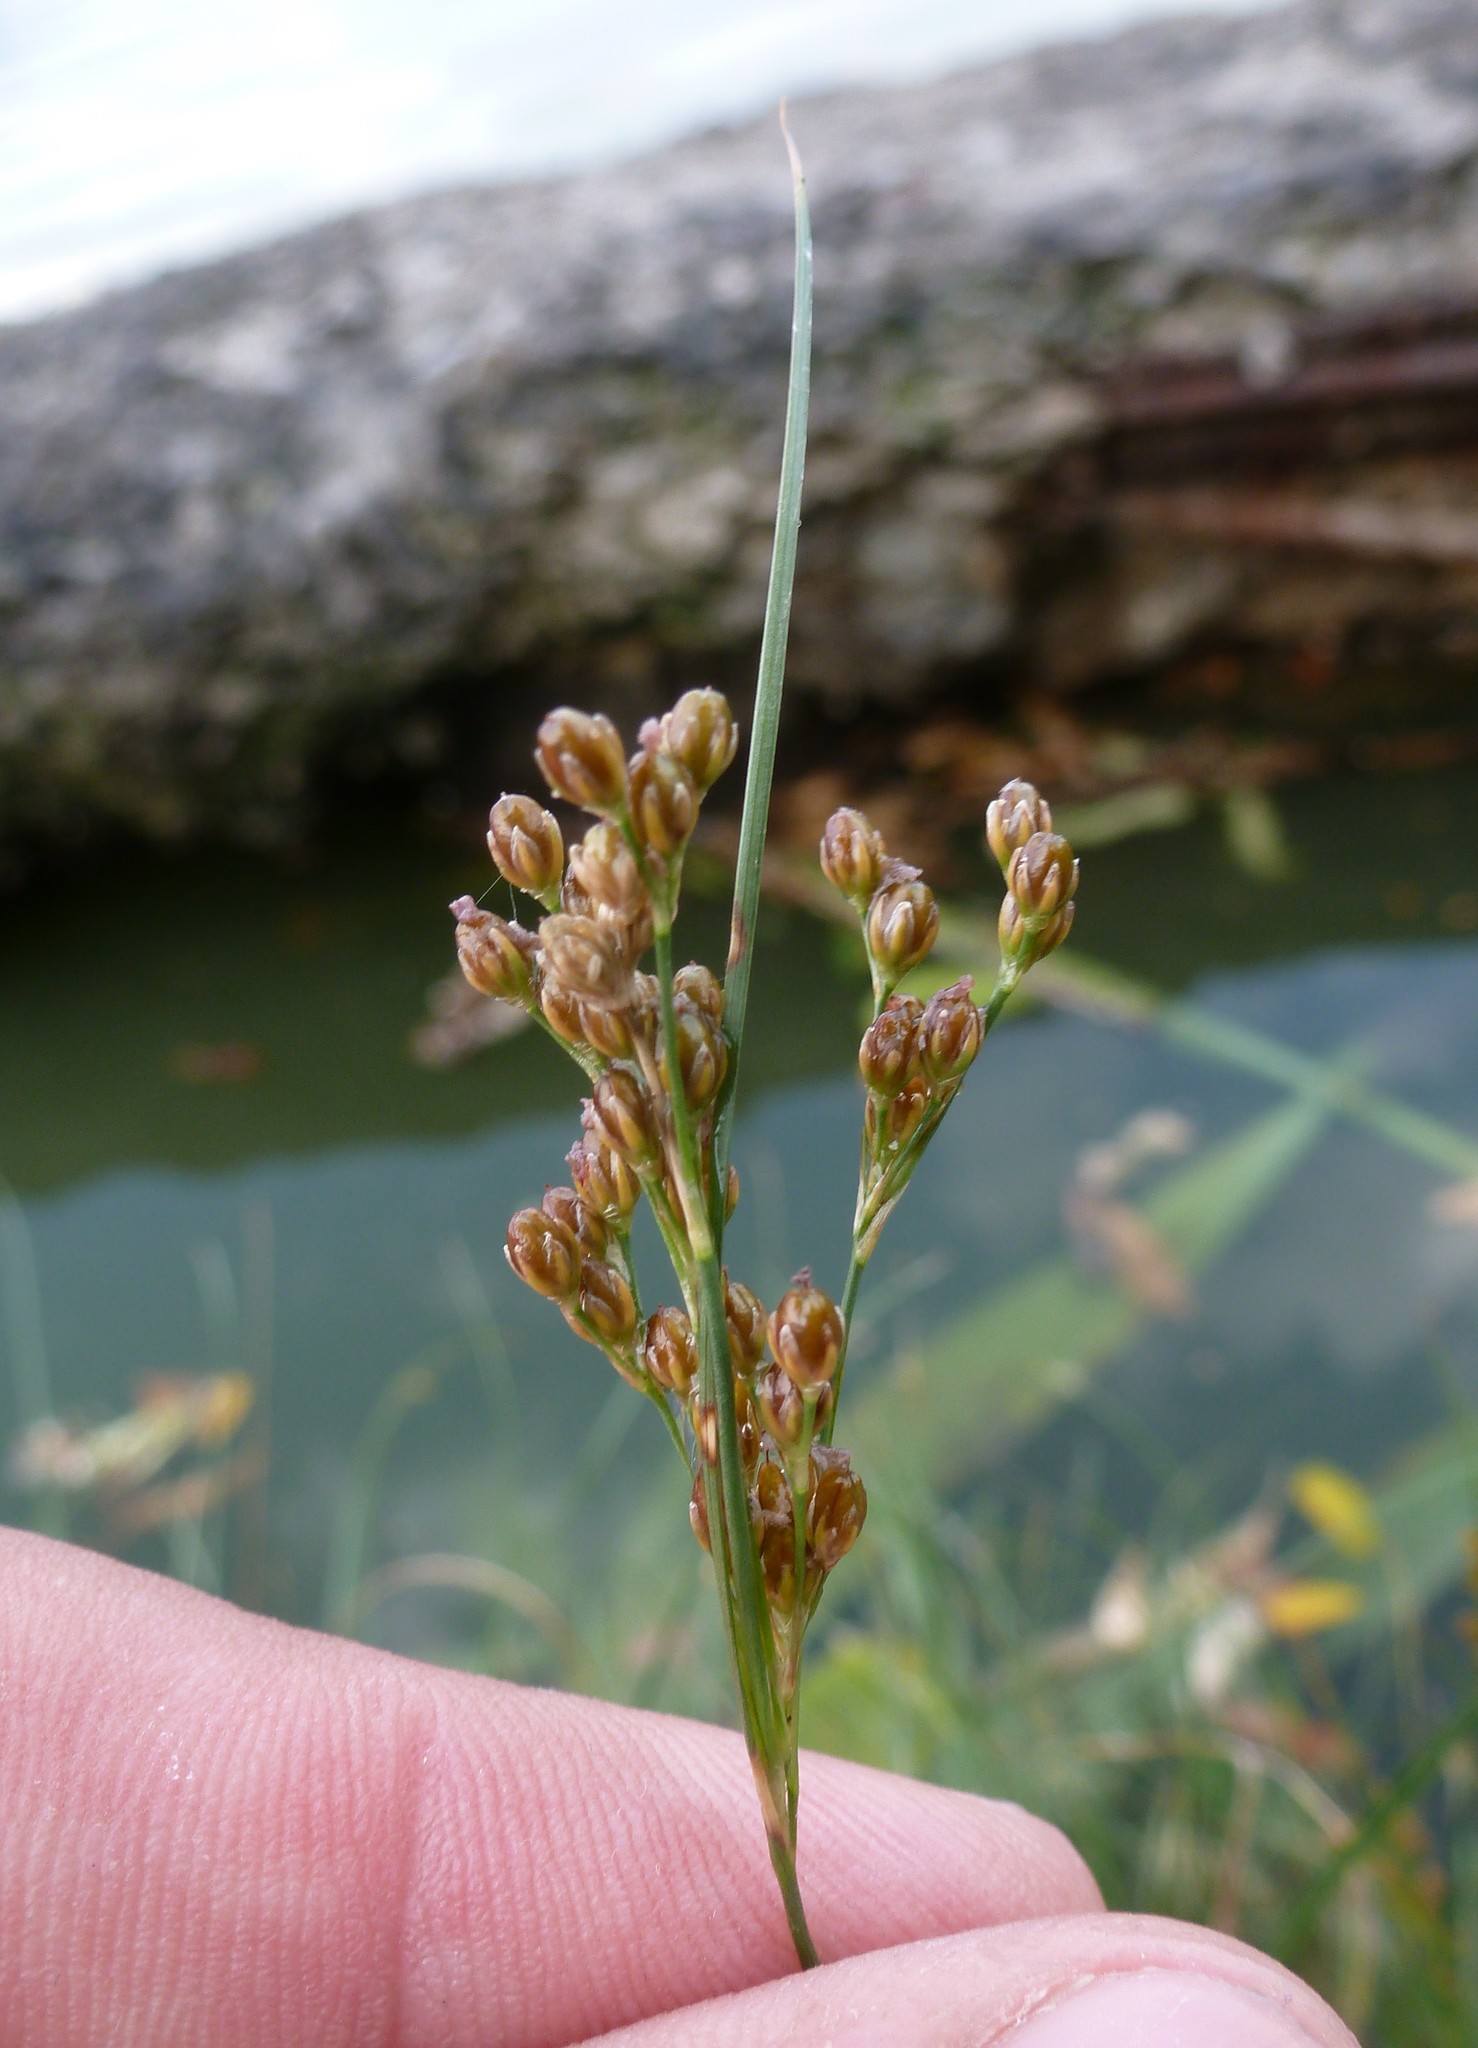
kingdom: Plantae
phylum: Tracheophyta
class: Liliopsida
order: Poales
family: Juncaceae
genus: Juncus
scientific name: Juncus compressus
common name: Round-fruited rush
